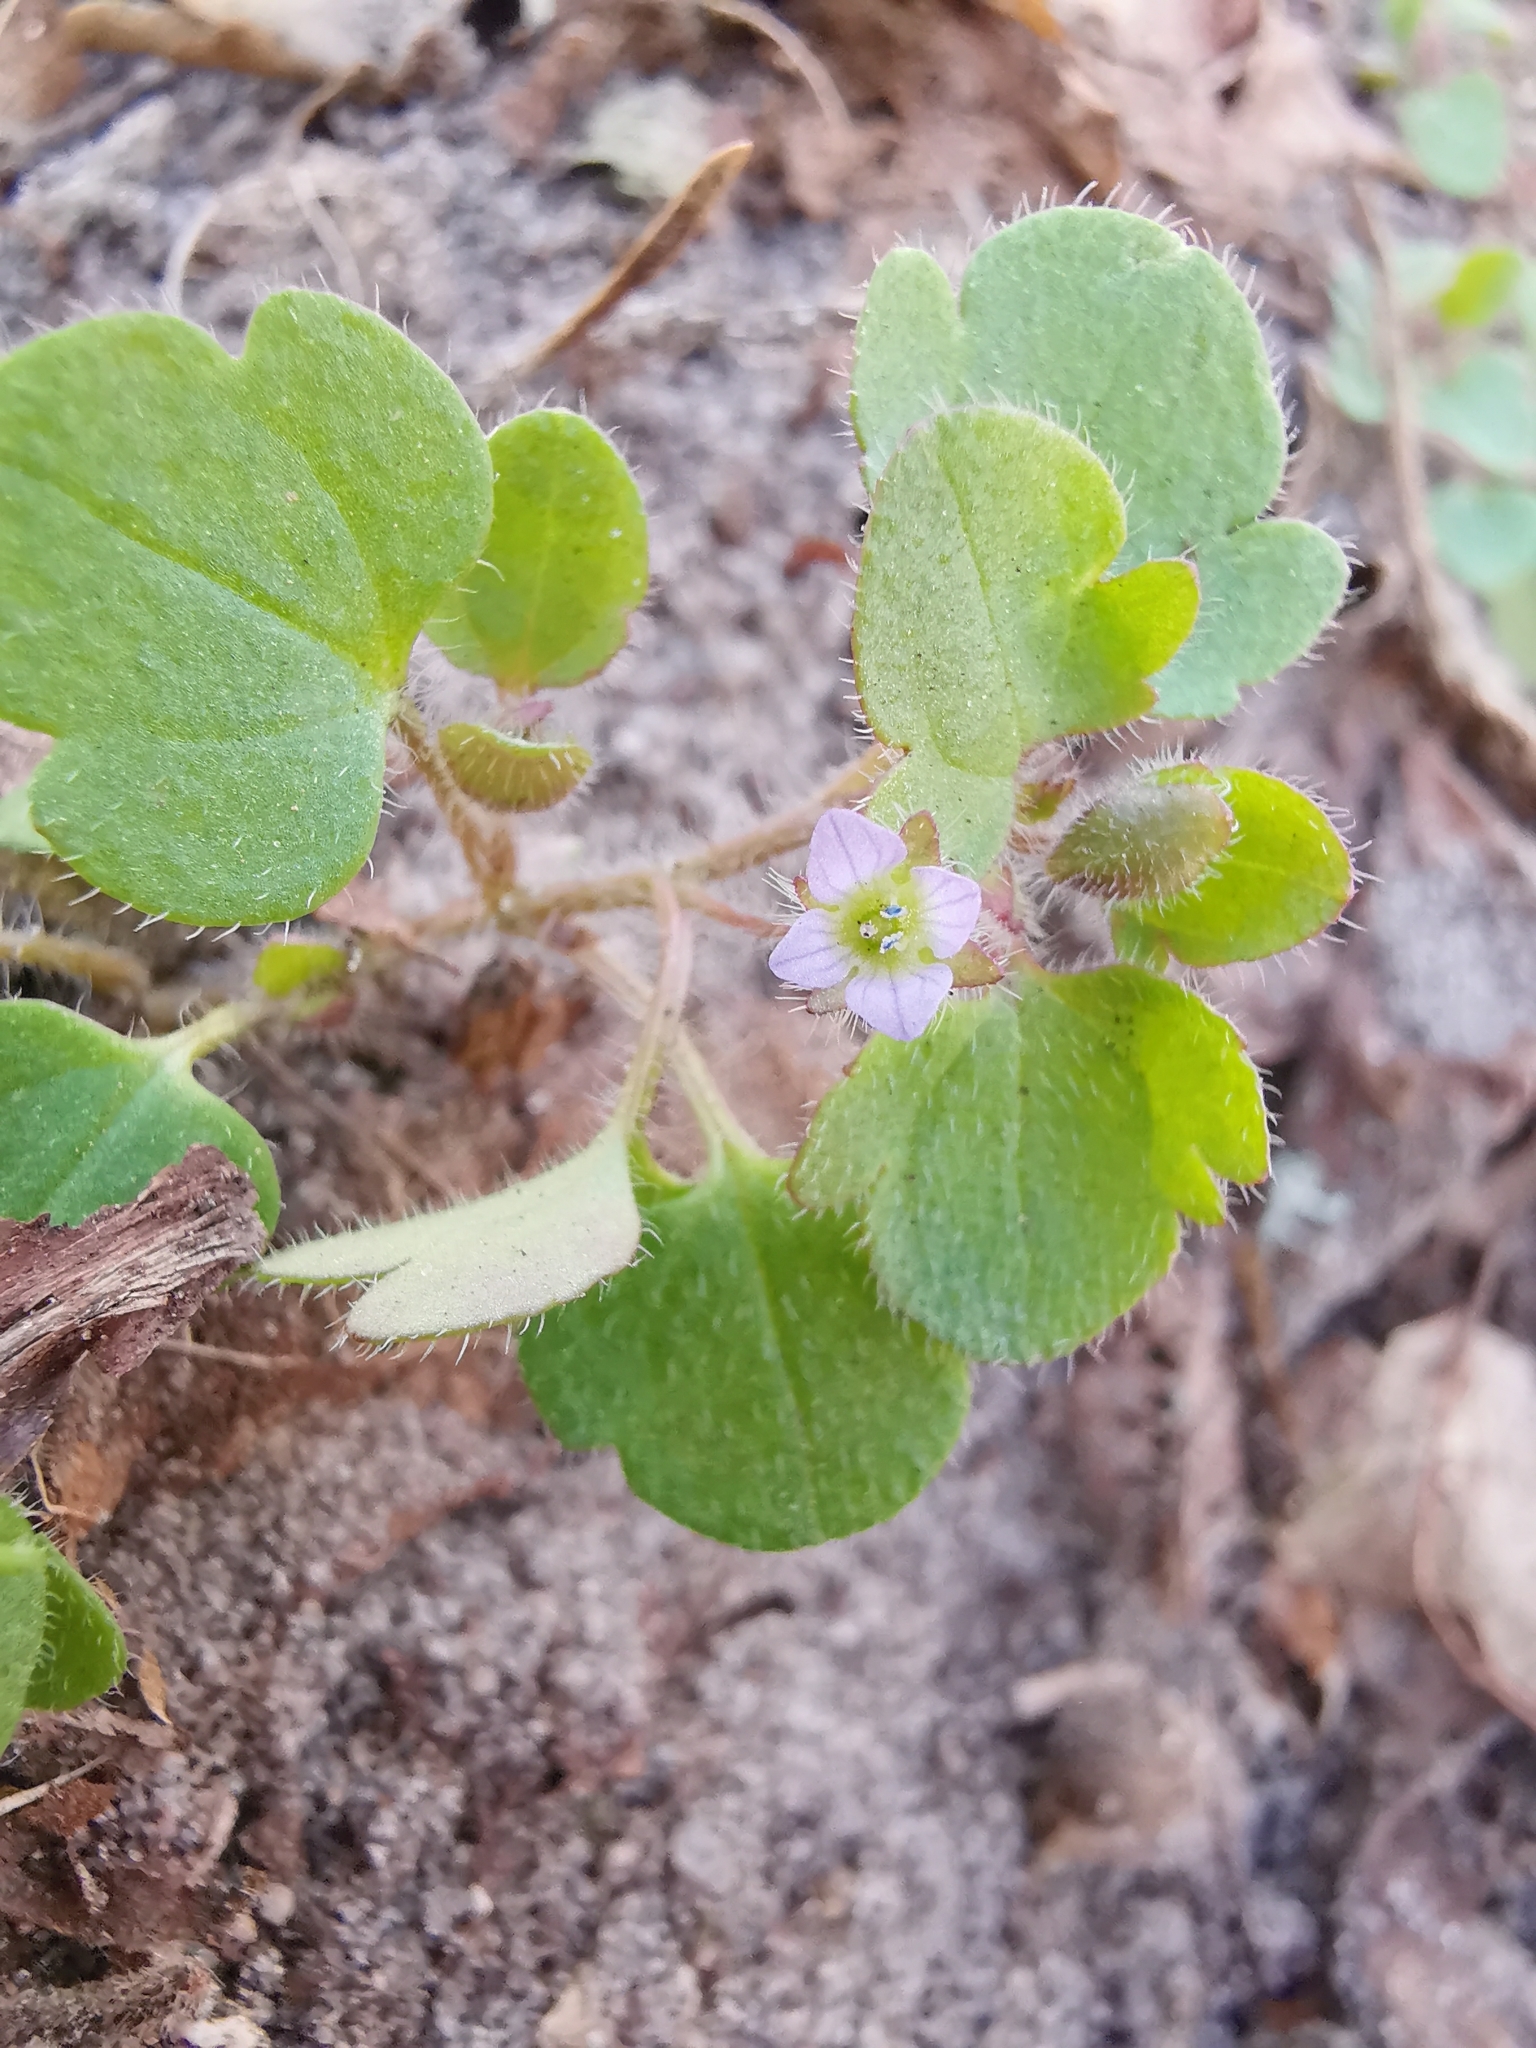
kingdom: Plantae
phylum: Tracheophyta
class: Magnoliopsida
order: Lamiales
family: Plantaginaceae
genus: Veronica
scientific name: Veronica sublobata
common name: False ivy-leaved speedwell
